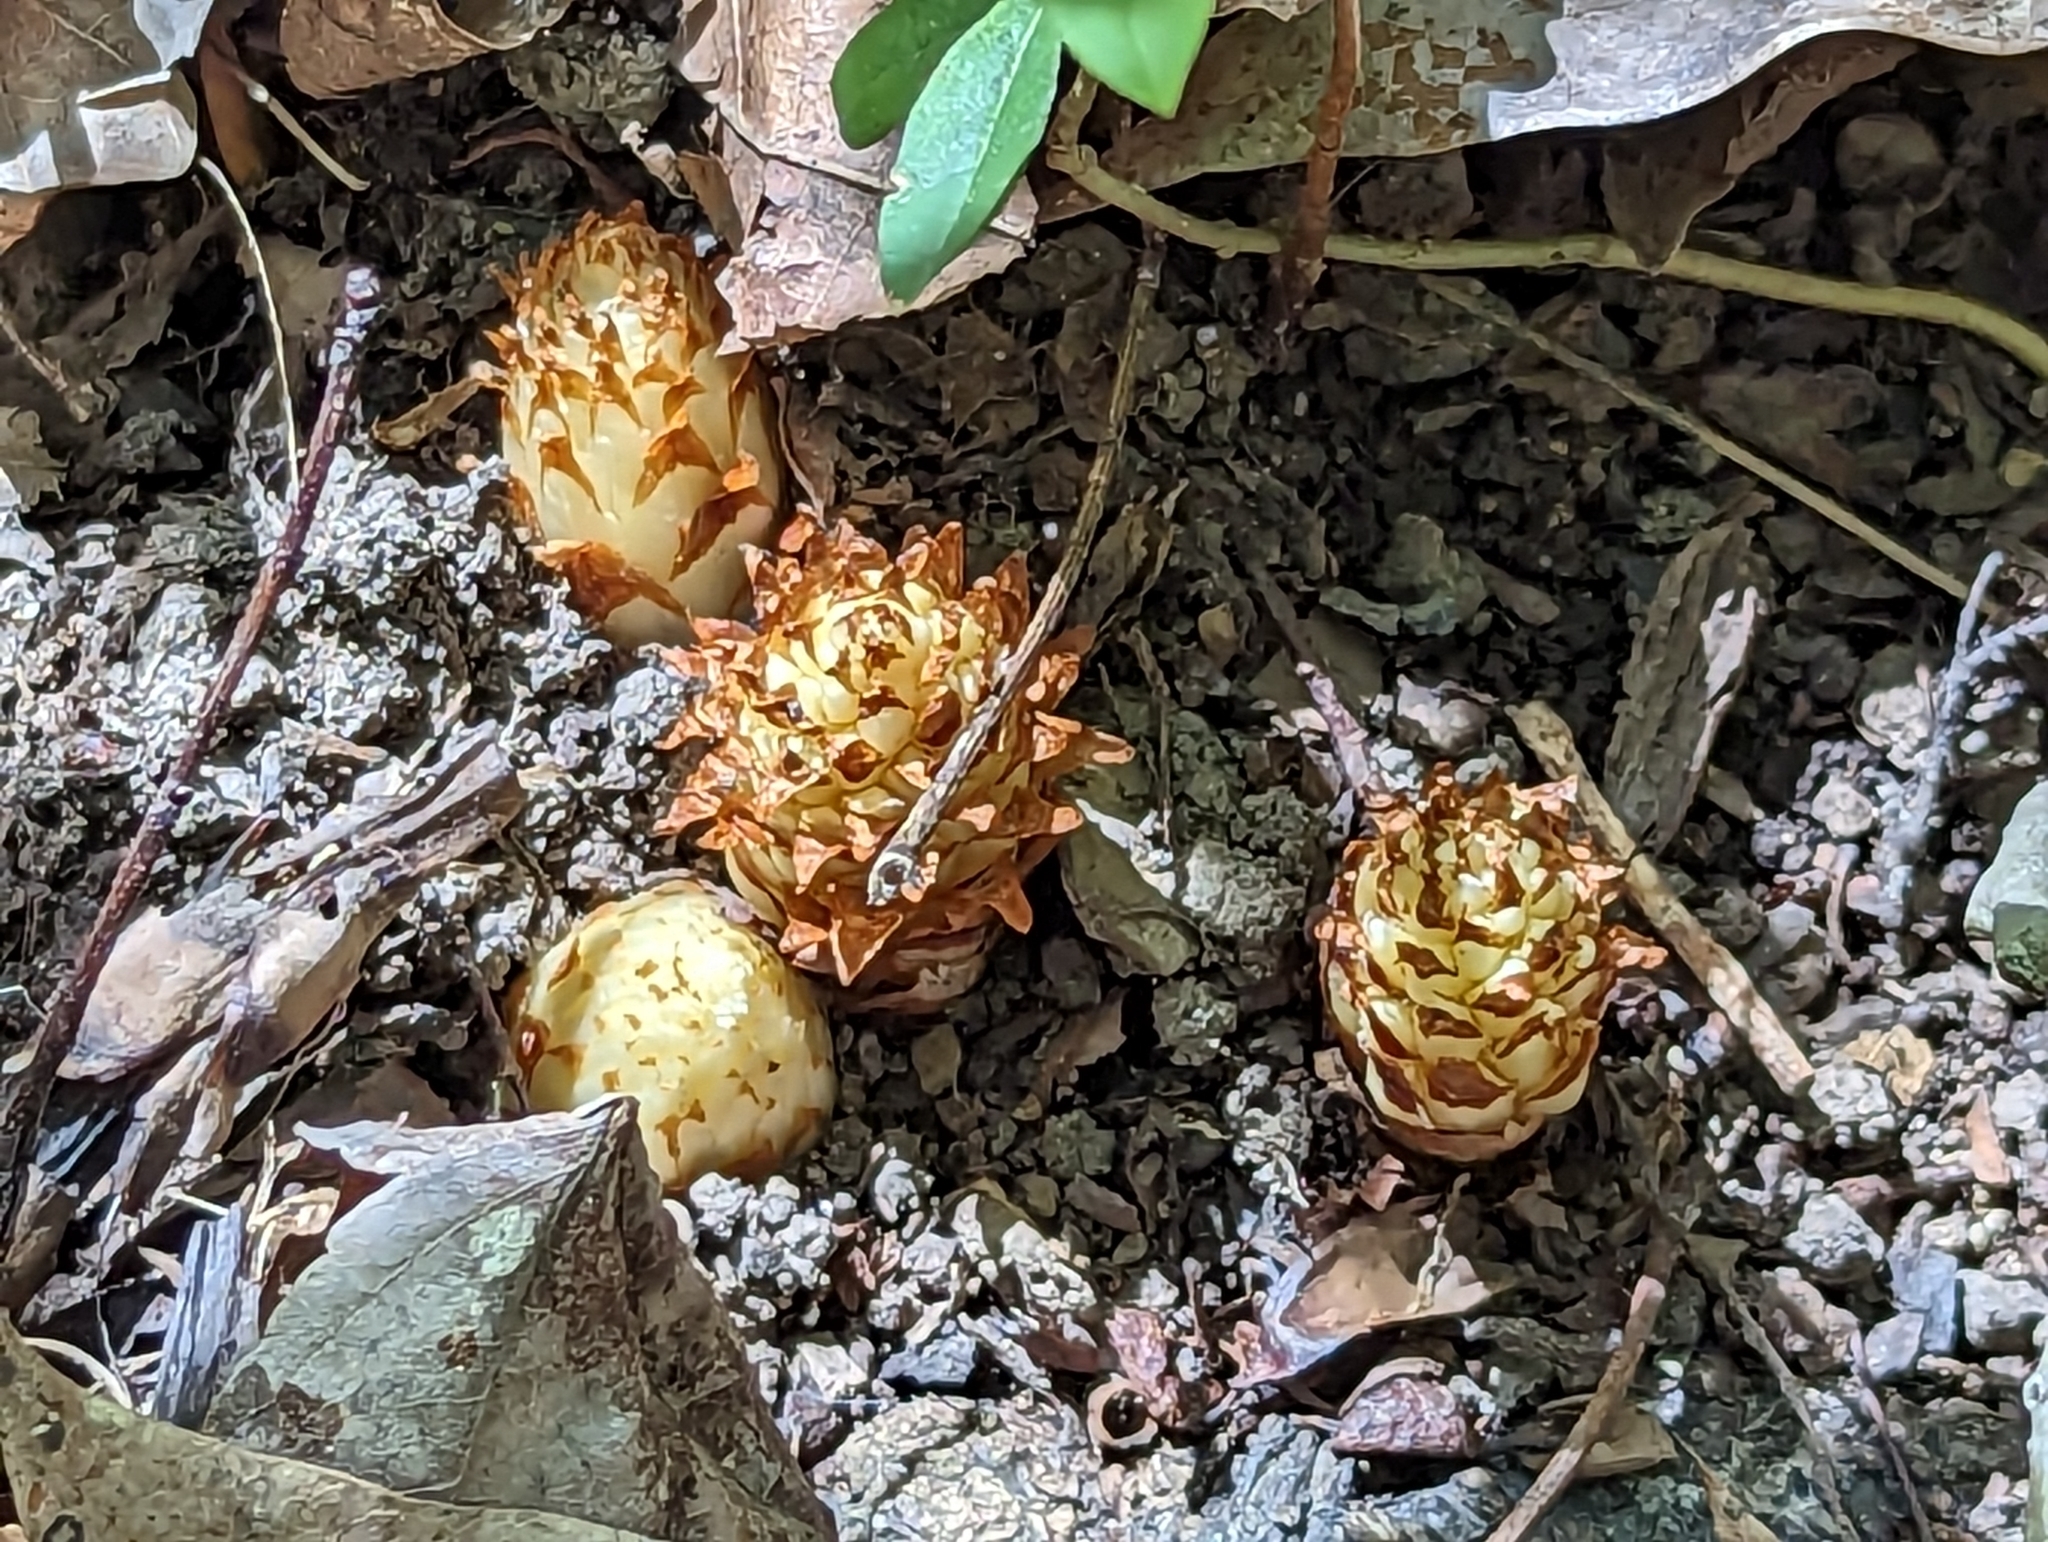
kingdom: Plantae
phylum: Tracheophyta
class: Magnoliopsida
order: Lamiales
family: Orobanchaceae
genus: Conopholis
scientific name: Conopholis americana
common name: American cancer-root
